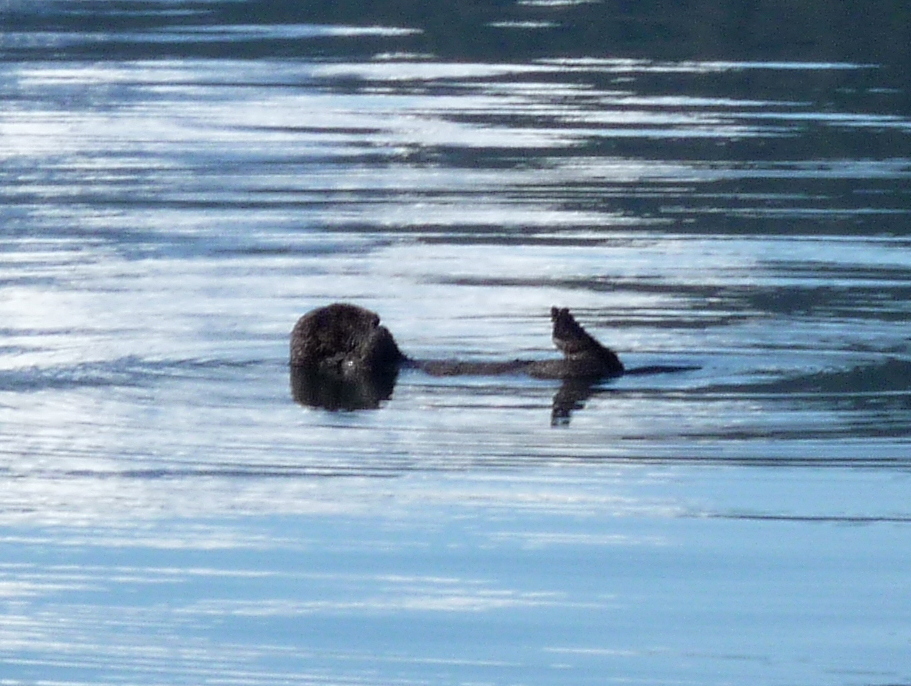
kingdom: Animalia
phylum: Chordata
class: Mammalia
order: Carnivora
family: Mustelidae
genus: Enhydra
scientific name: Enhydra lutris
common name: Sea otter
